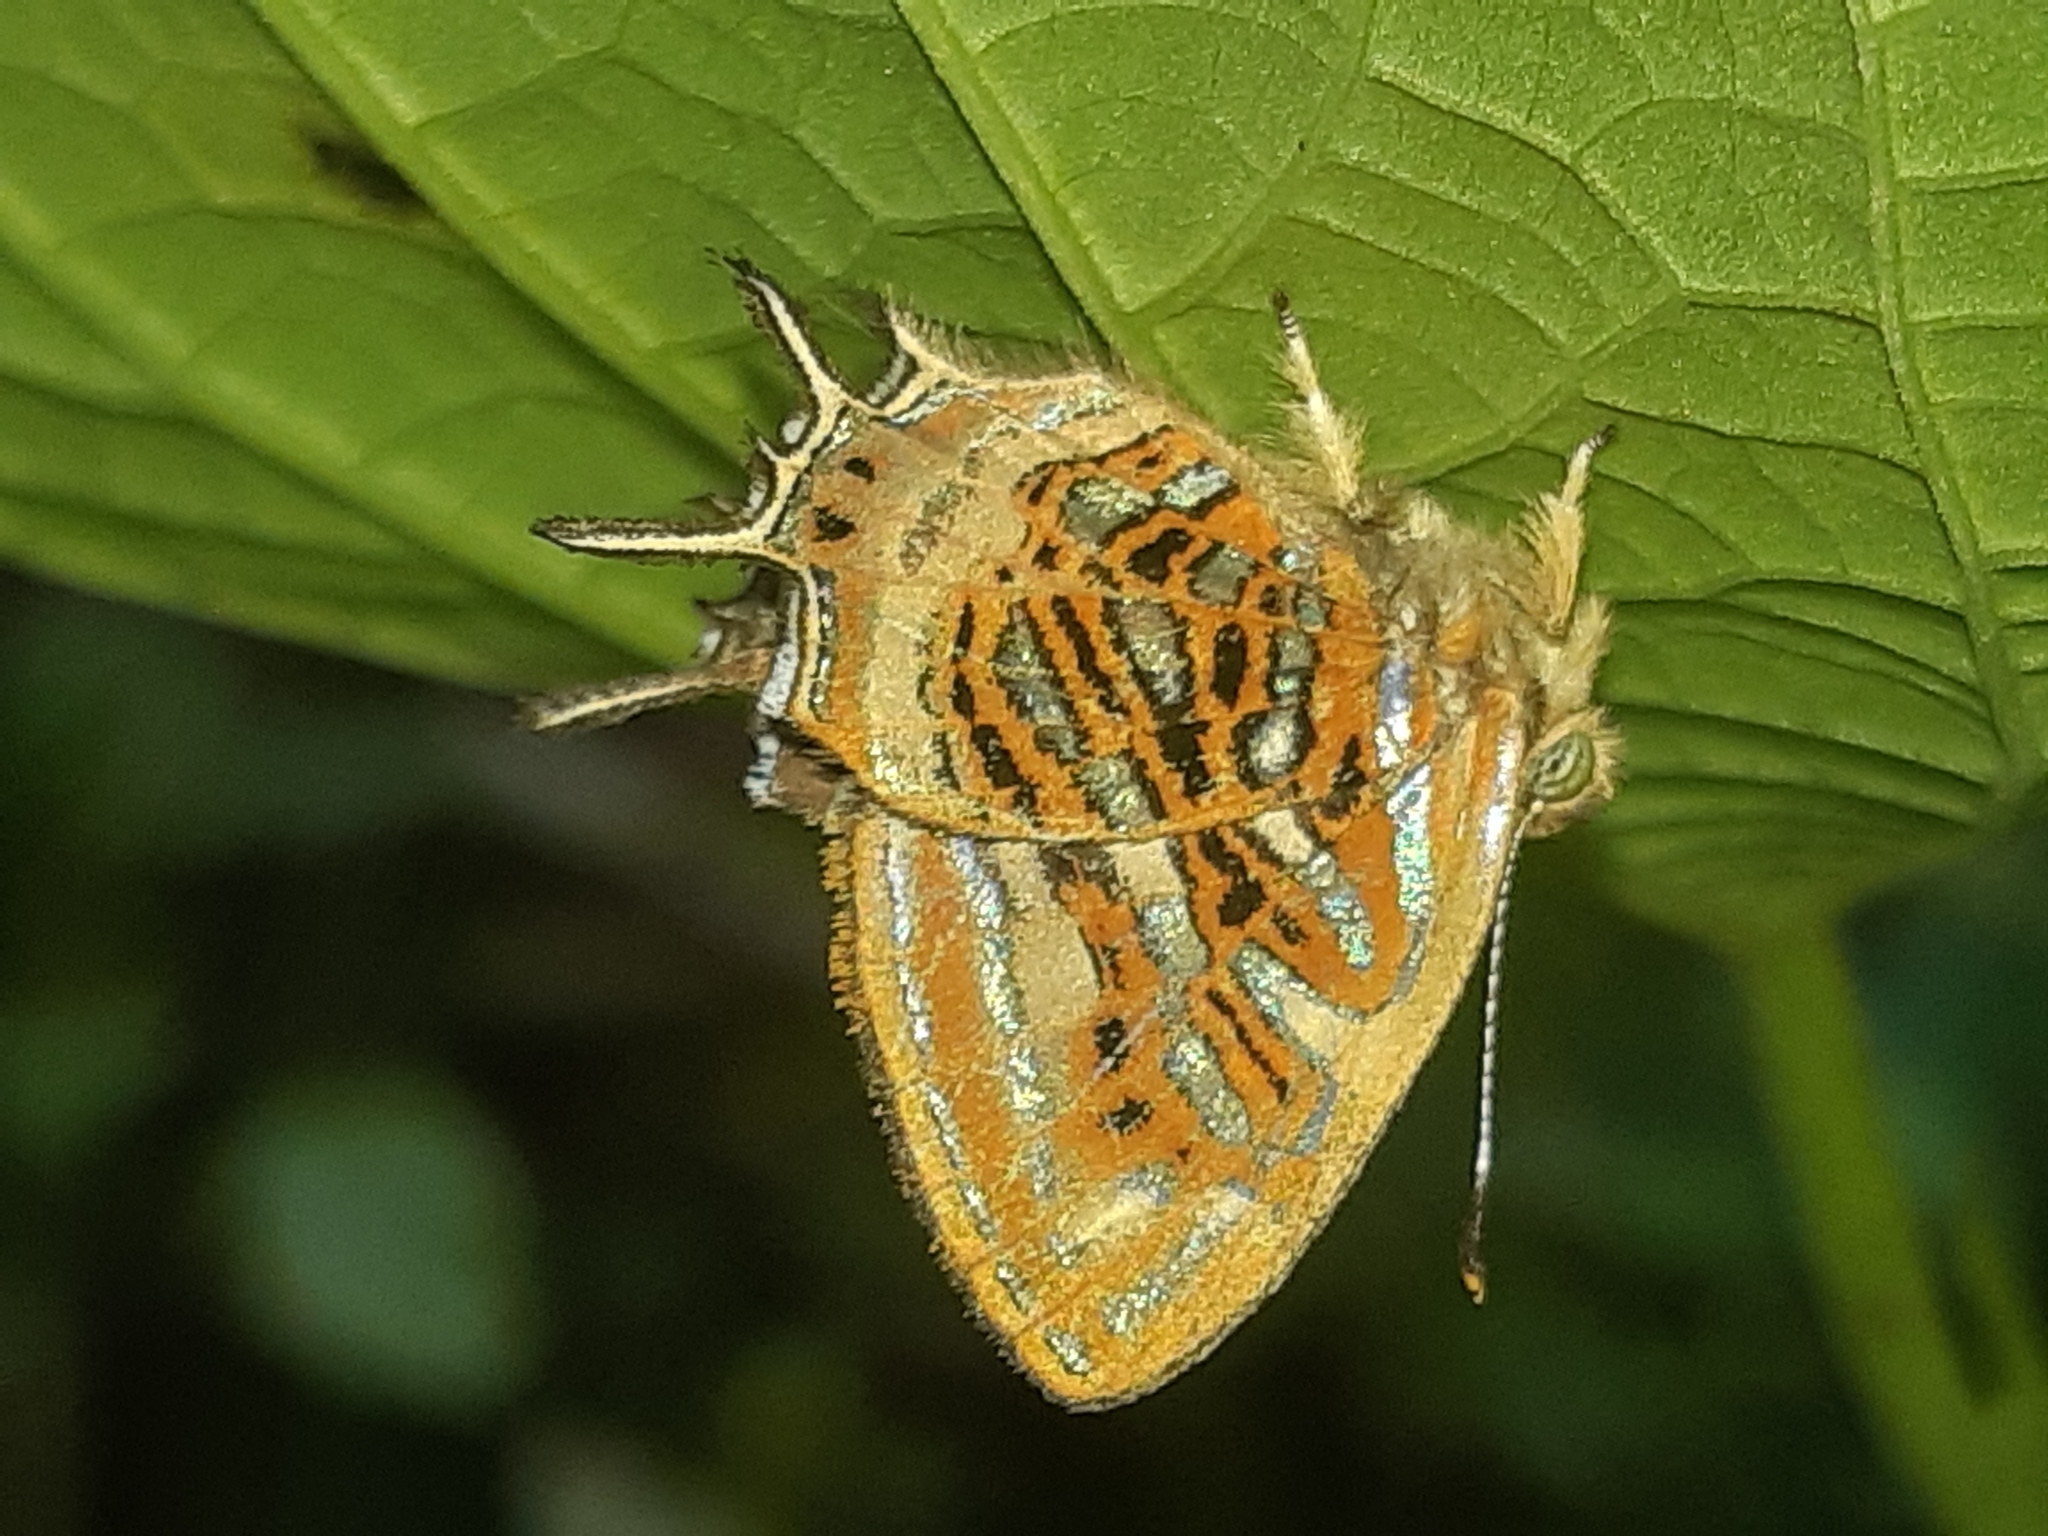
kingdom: Animalia
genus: Charis
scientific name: Charis chrysus
